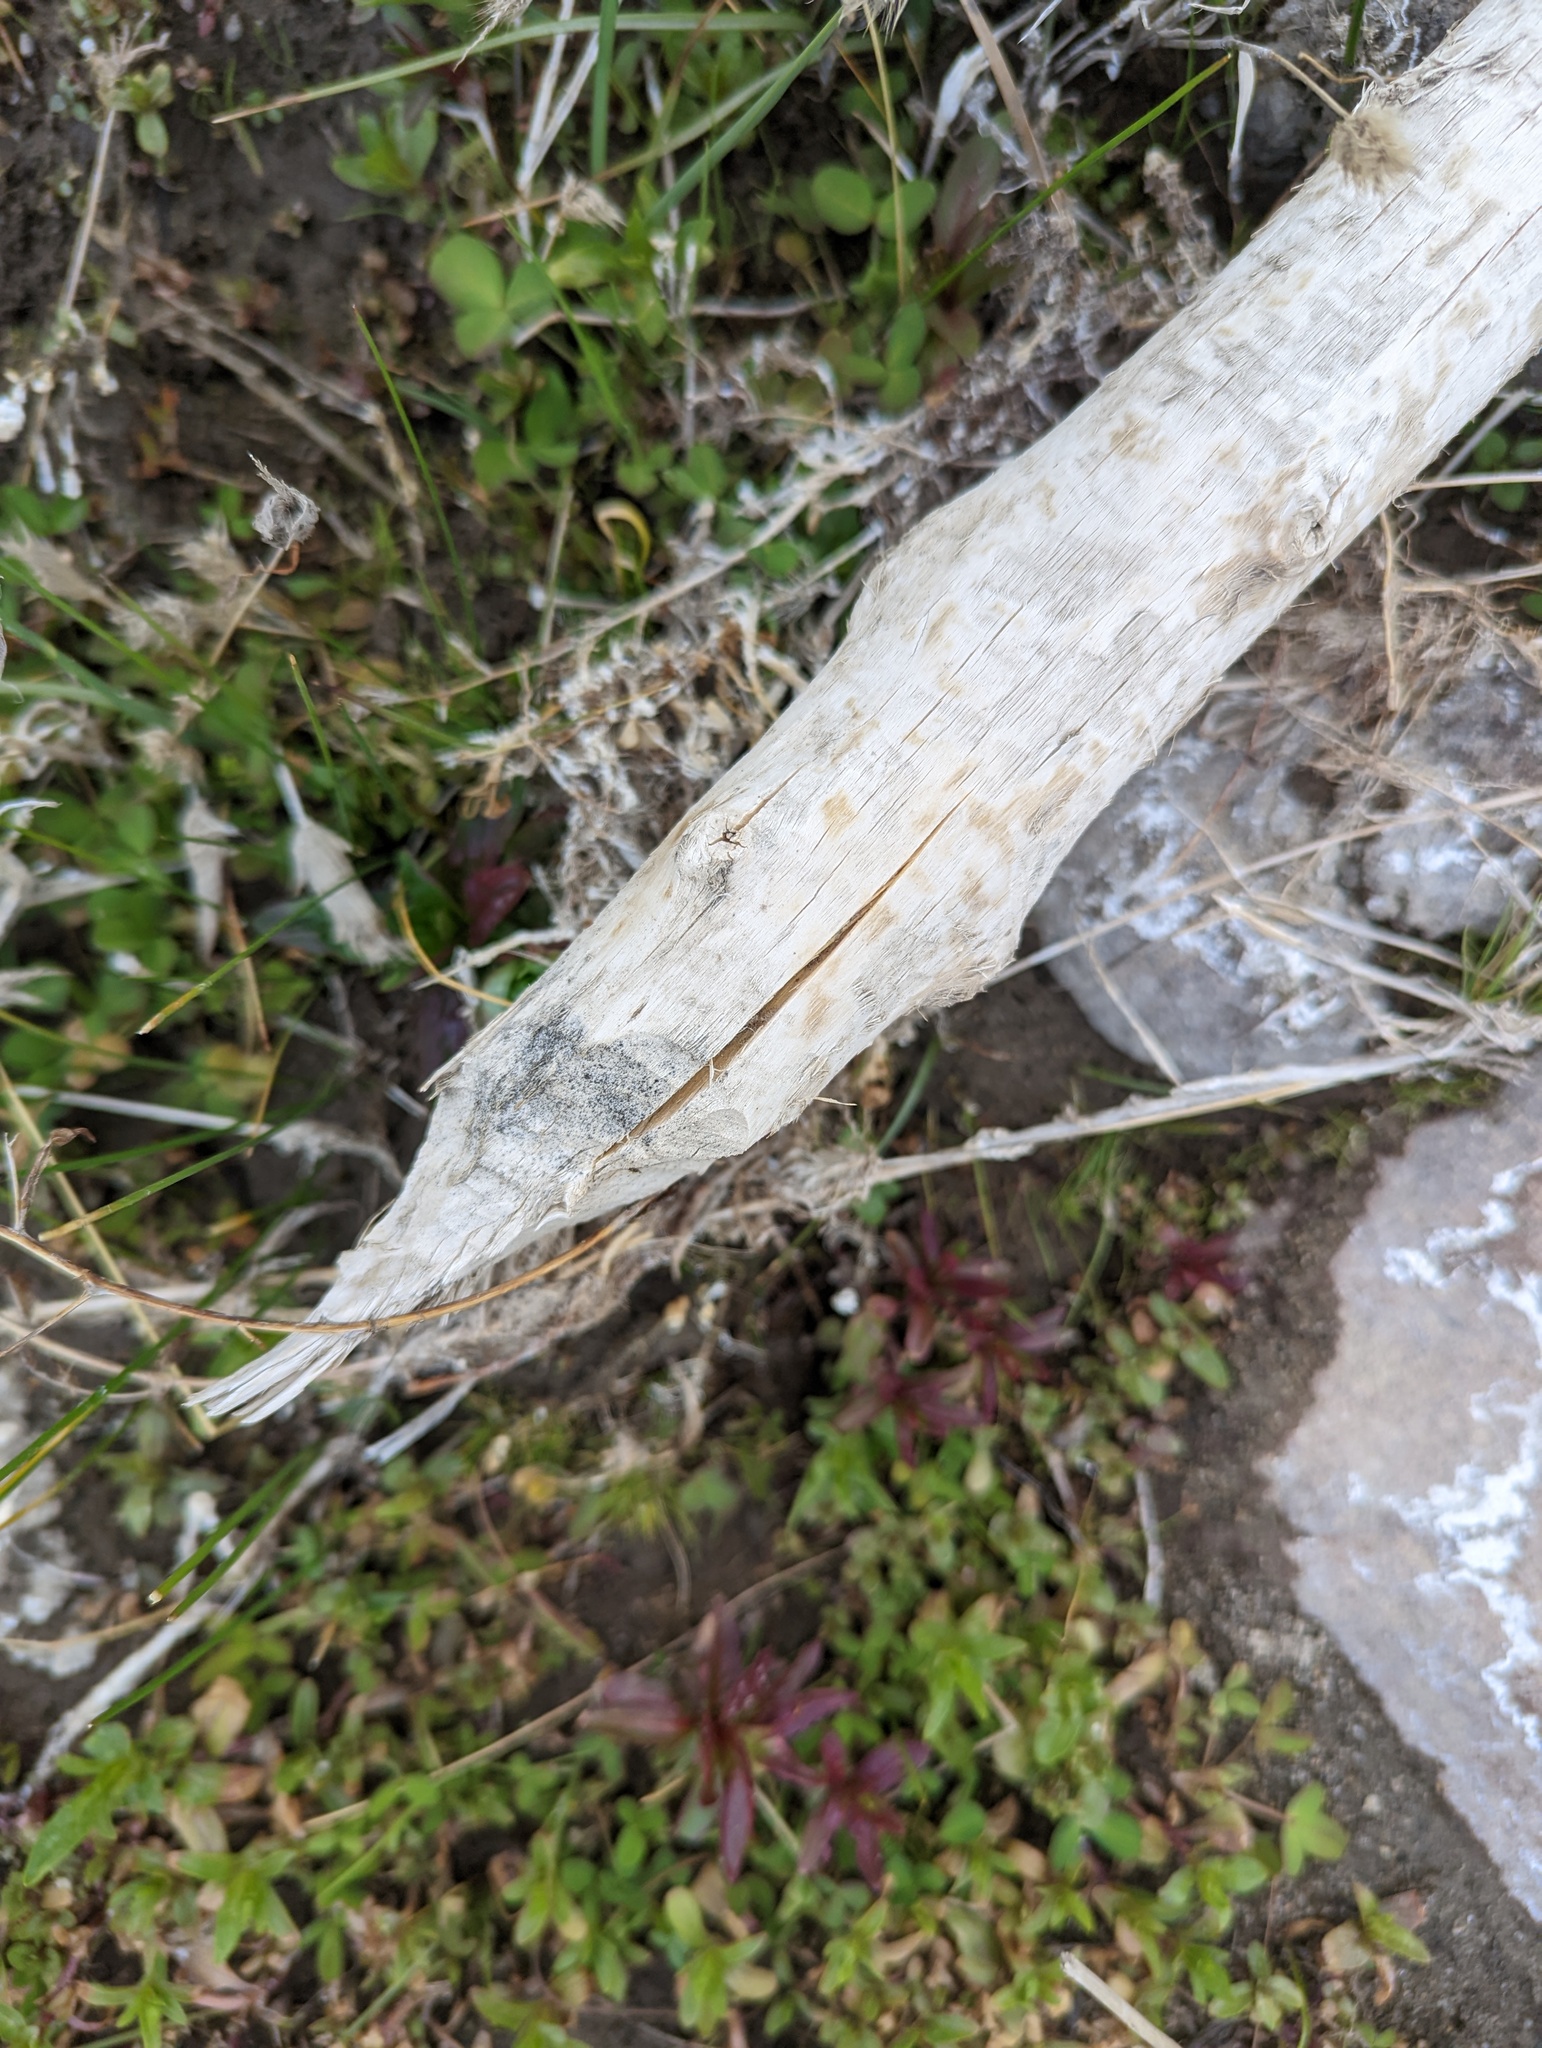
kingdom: Animalia
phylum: Chordata
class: Mammalia
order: Rodentia
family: Castoridae
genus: Castor
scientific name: Castor canadensis
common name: American beaver
